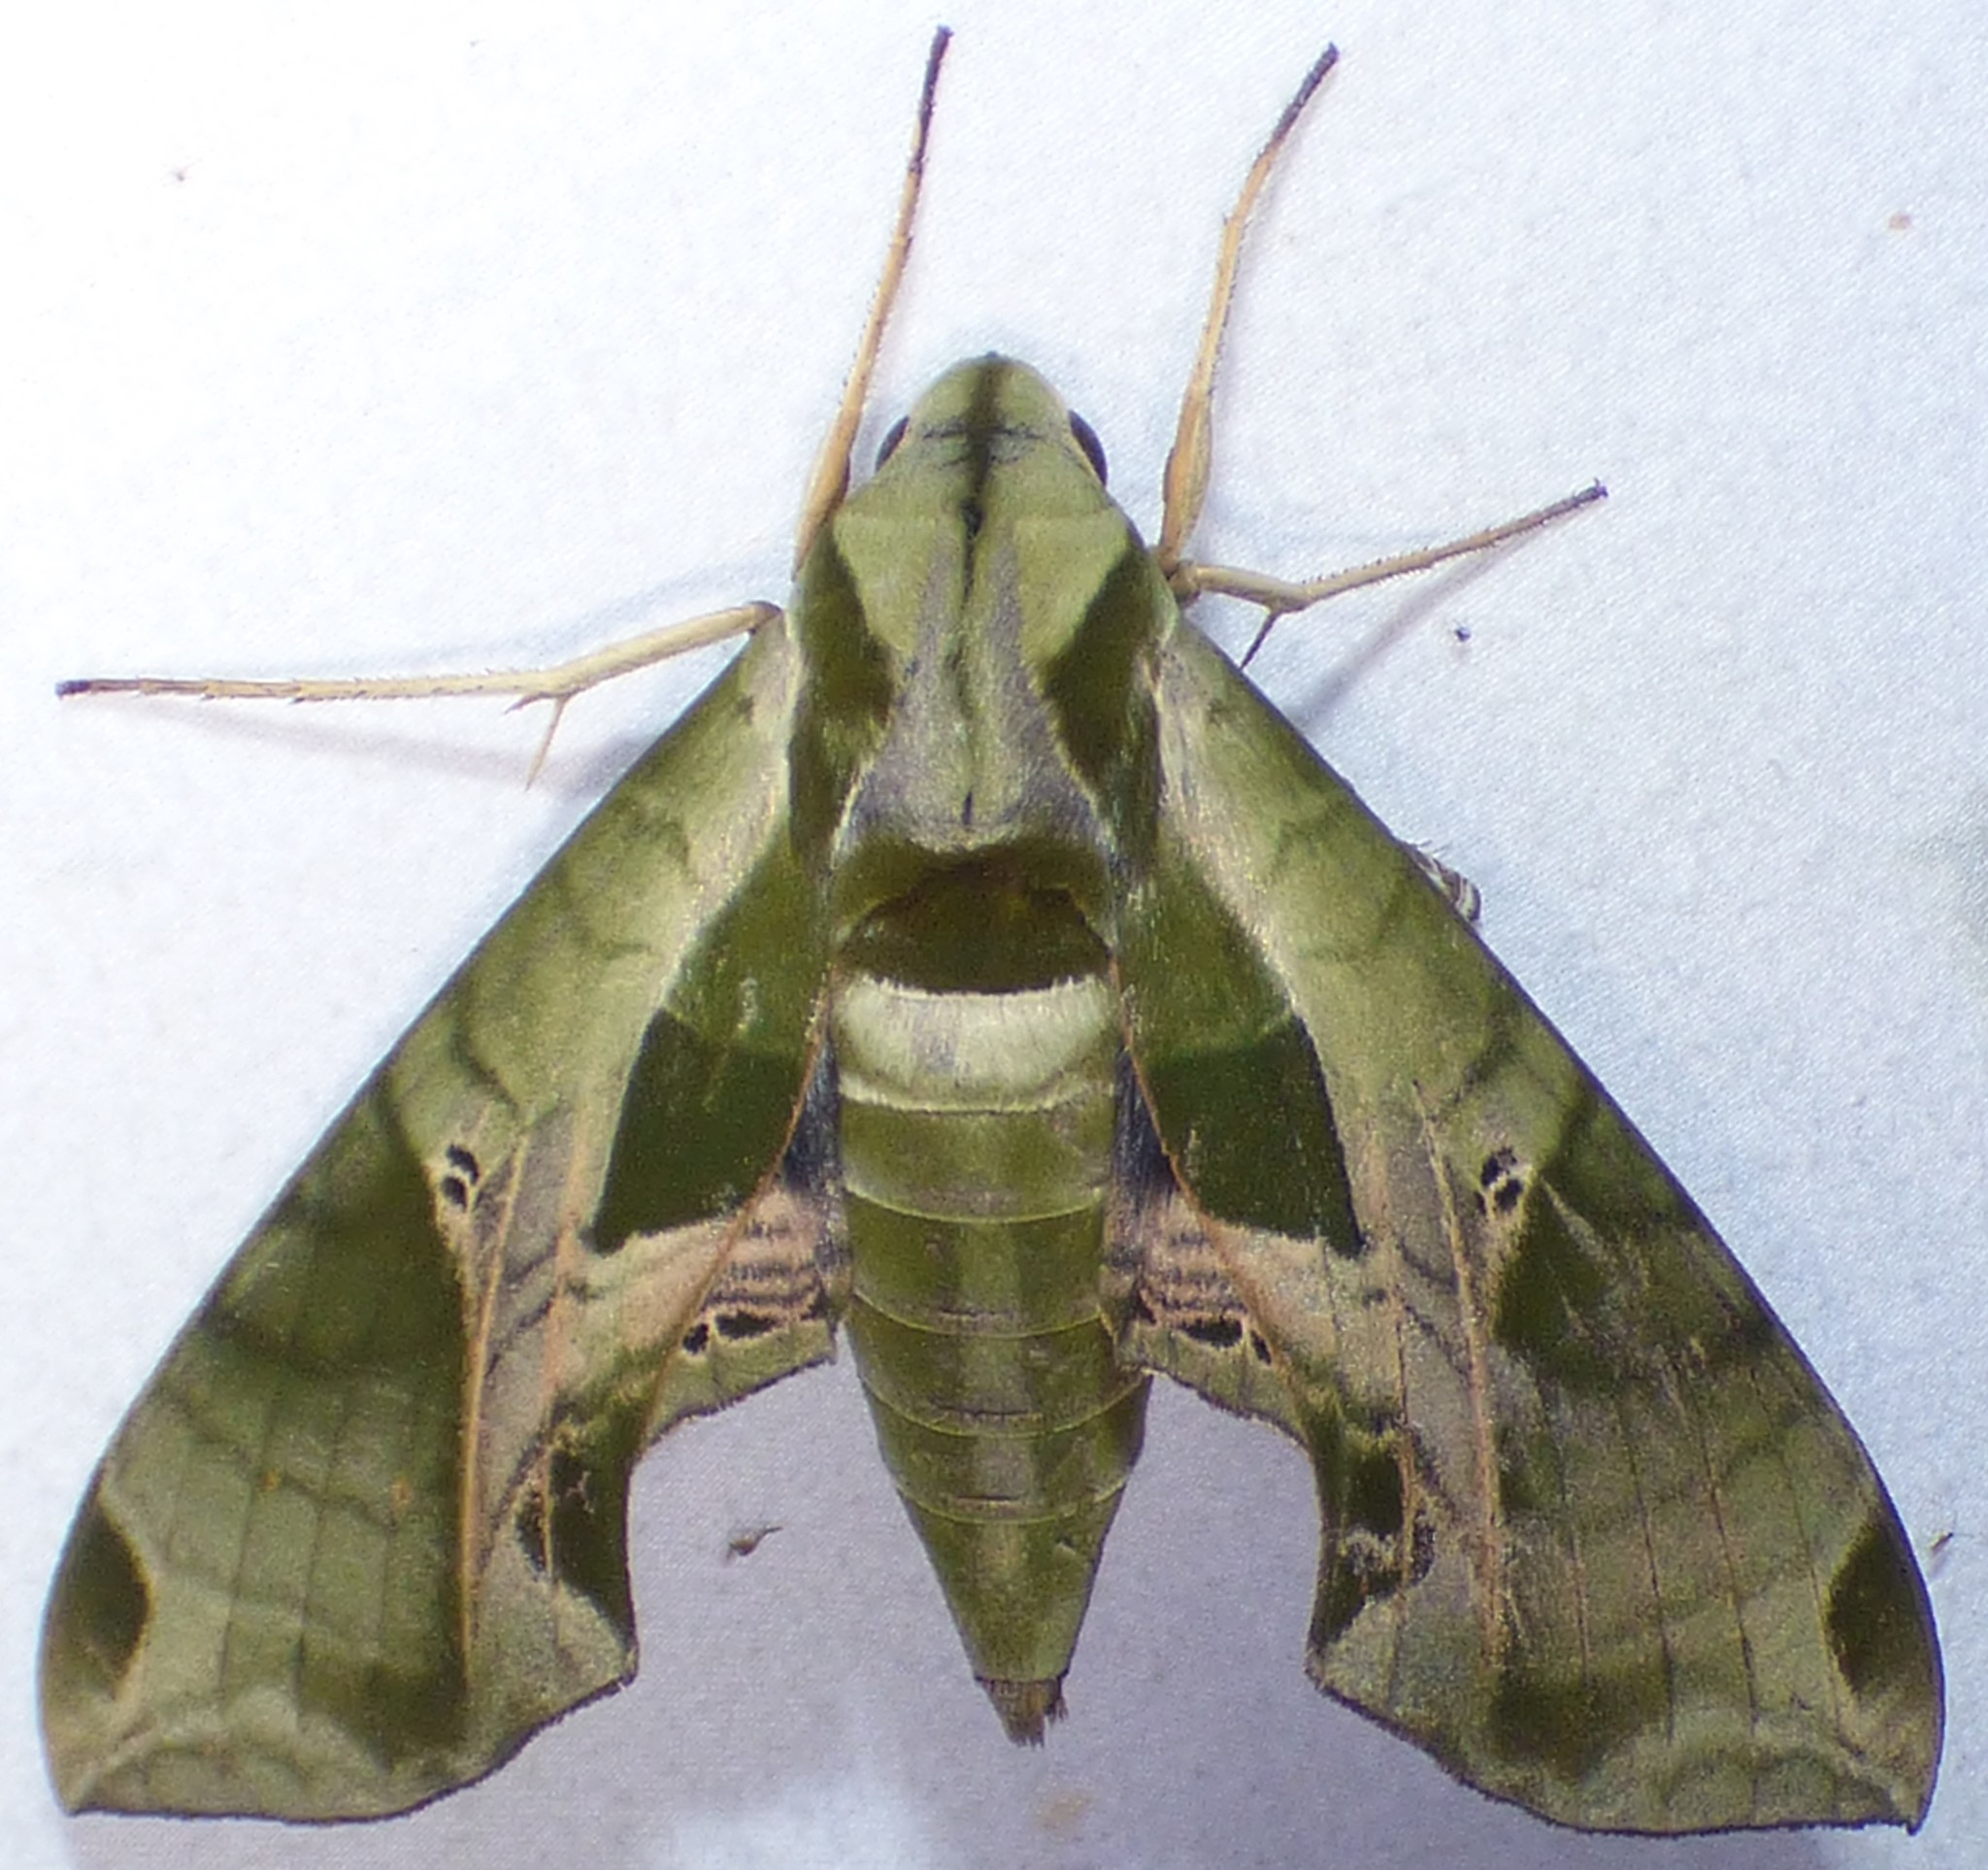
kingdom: Animalia
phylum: Arthropoda
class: Insecta
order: Lepidoptera
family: Sphingidae
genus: Eumorpha
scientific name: Eumorpha pandorus
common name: Pandora sphinx
